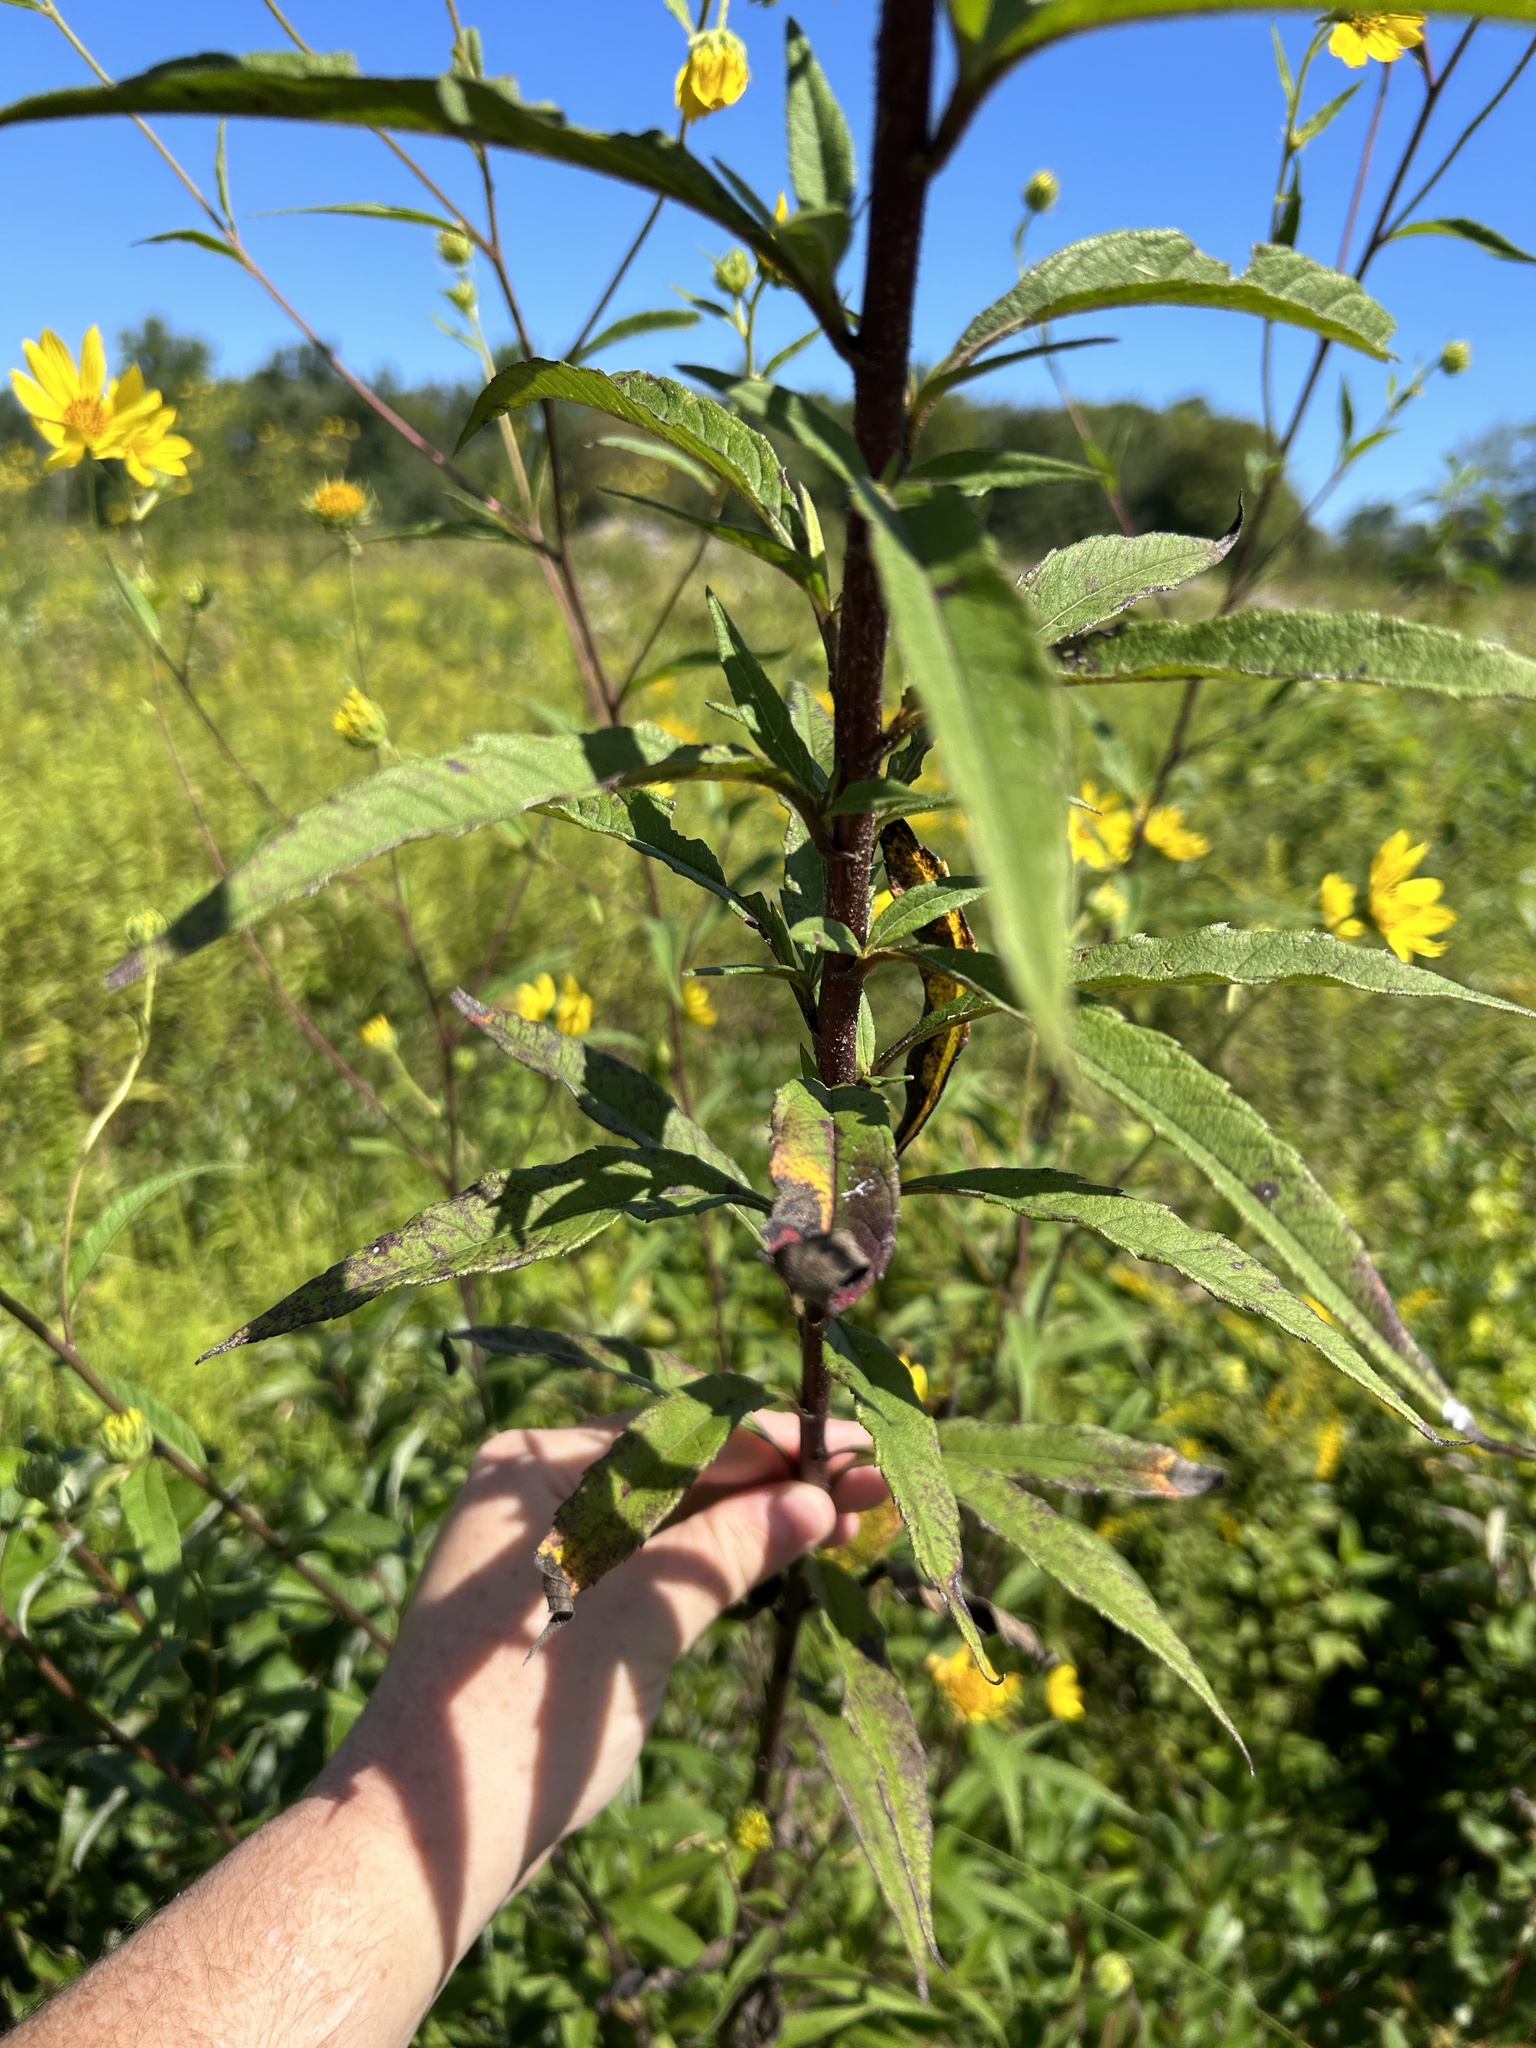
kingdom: Plantae
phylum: Tracheophyta
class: Magnoliopsida
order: Asterales
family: Asteraceae
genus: Helianthus
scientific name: Helianthus giganteus
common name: Giant sunflower
